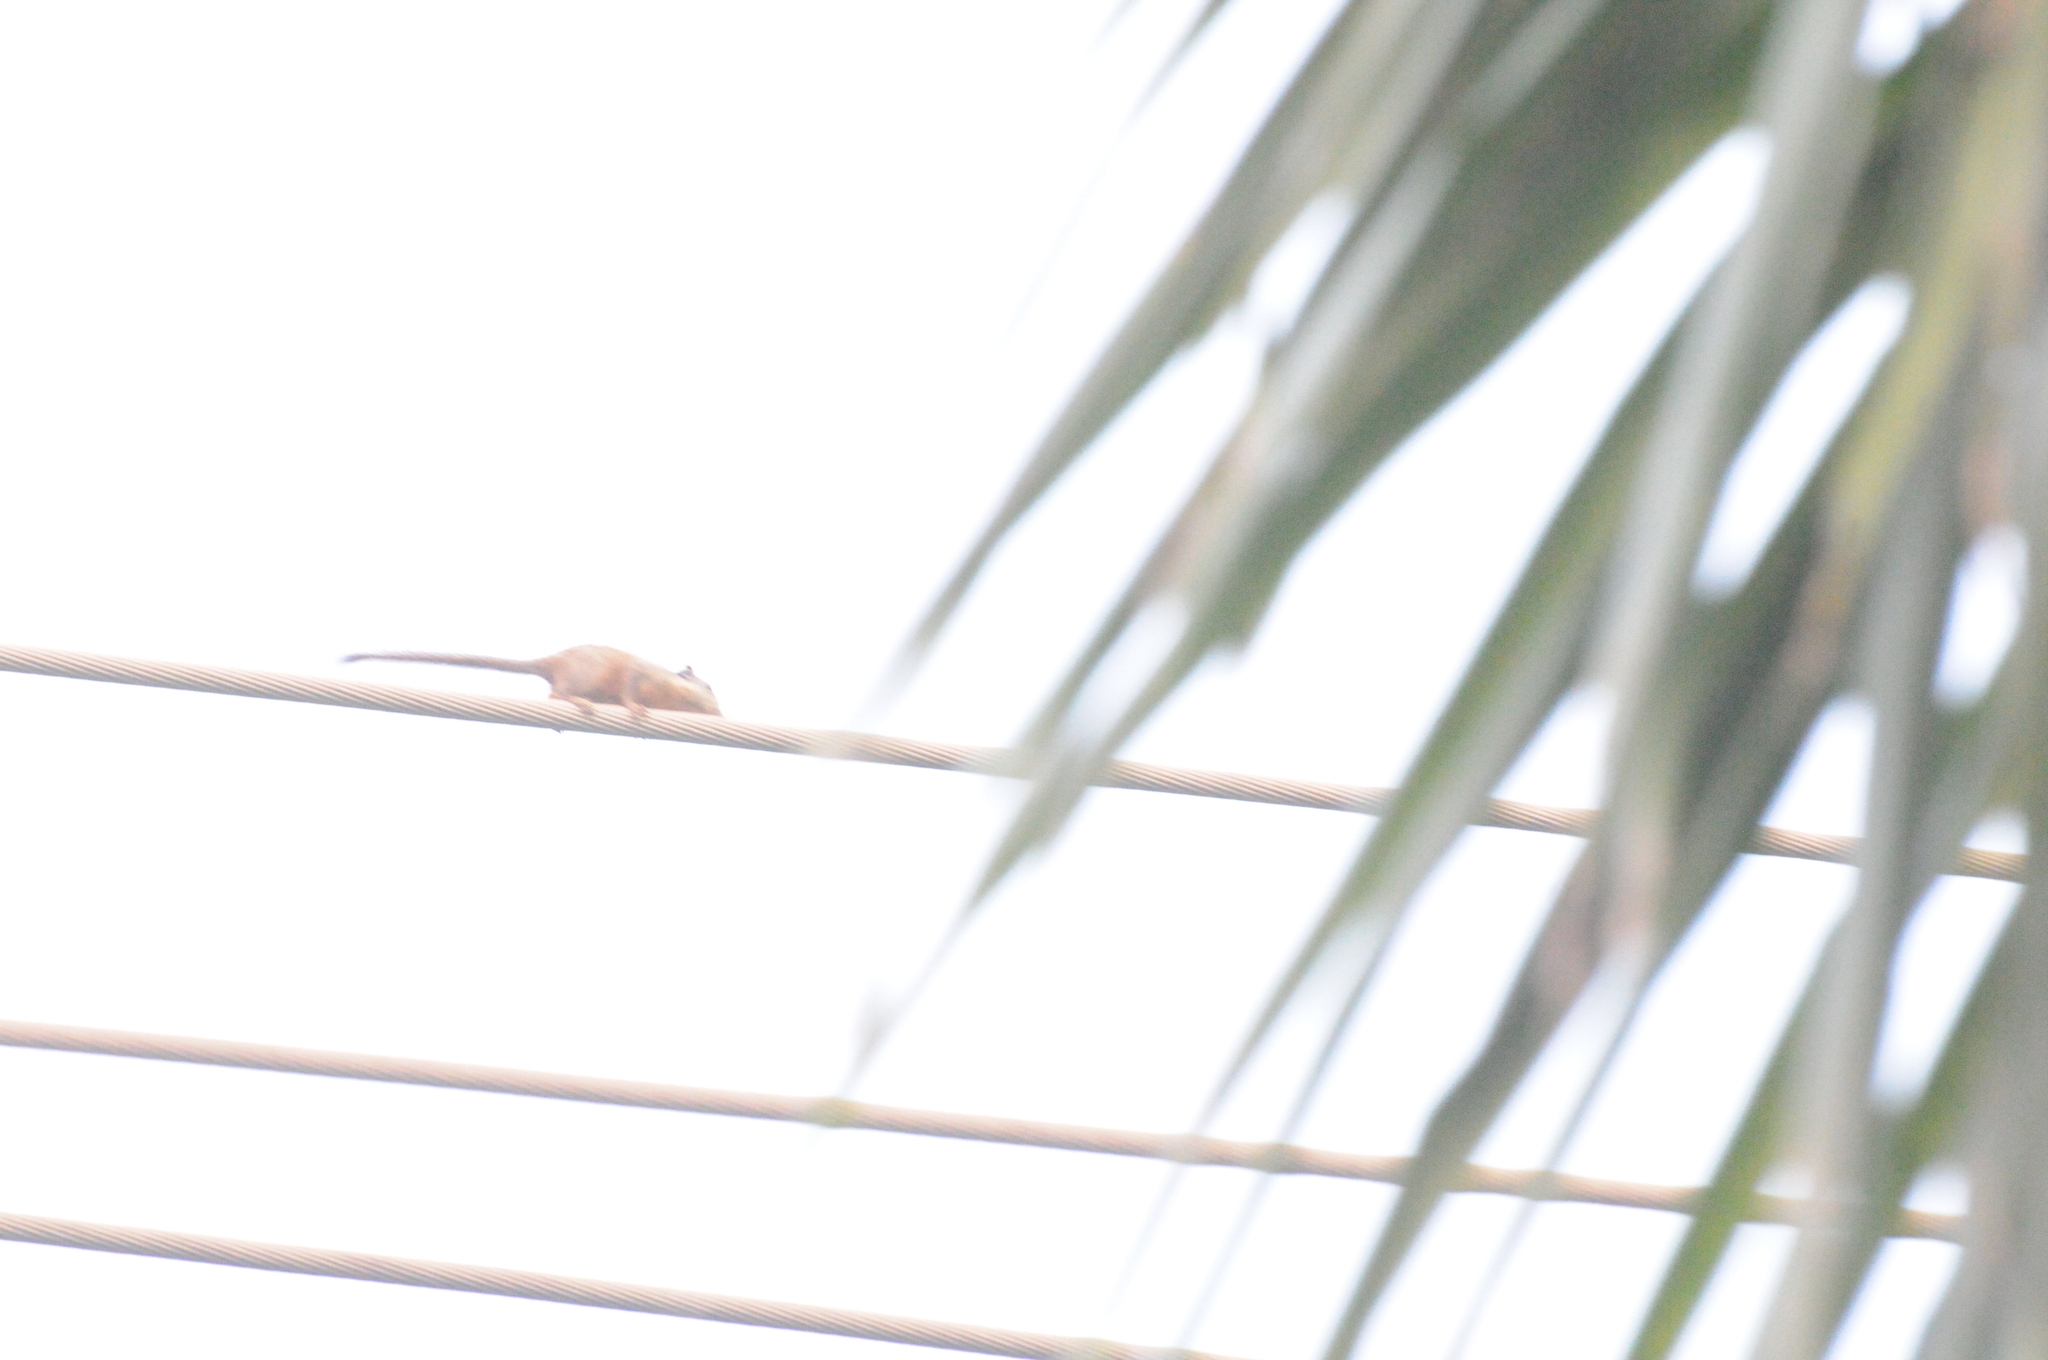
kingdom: Animalia
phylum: Chordata
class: Mammalia
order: Rodentia
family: Sciuridae
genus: Tamiops
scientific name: Tamiops rodolphii
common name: Cambodian striped squirrel
